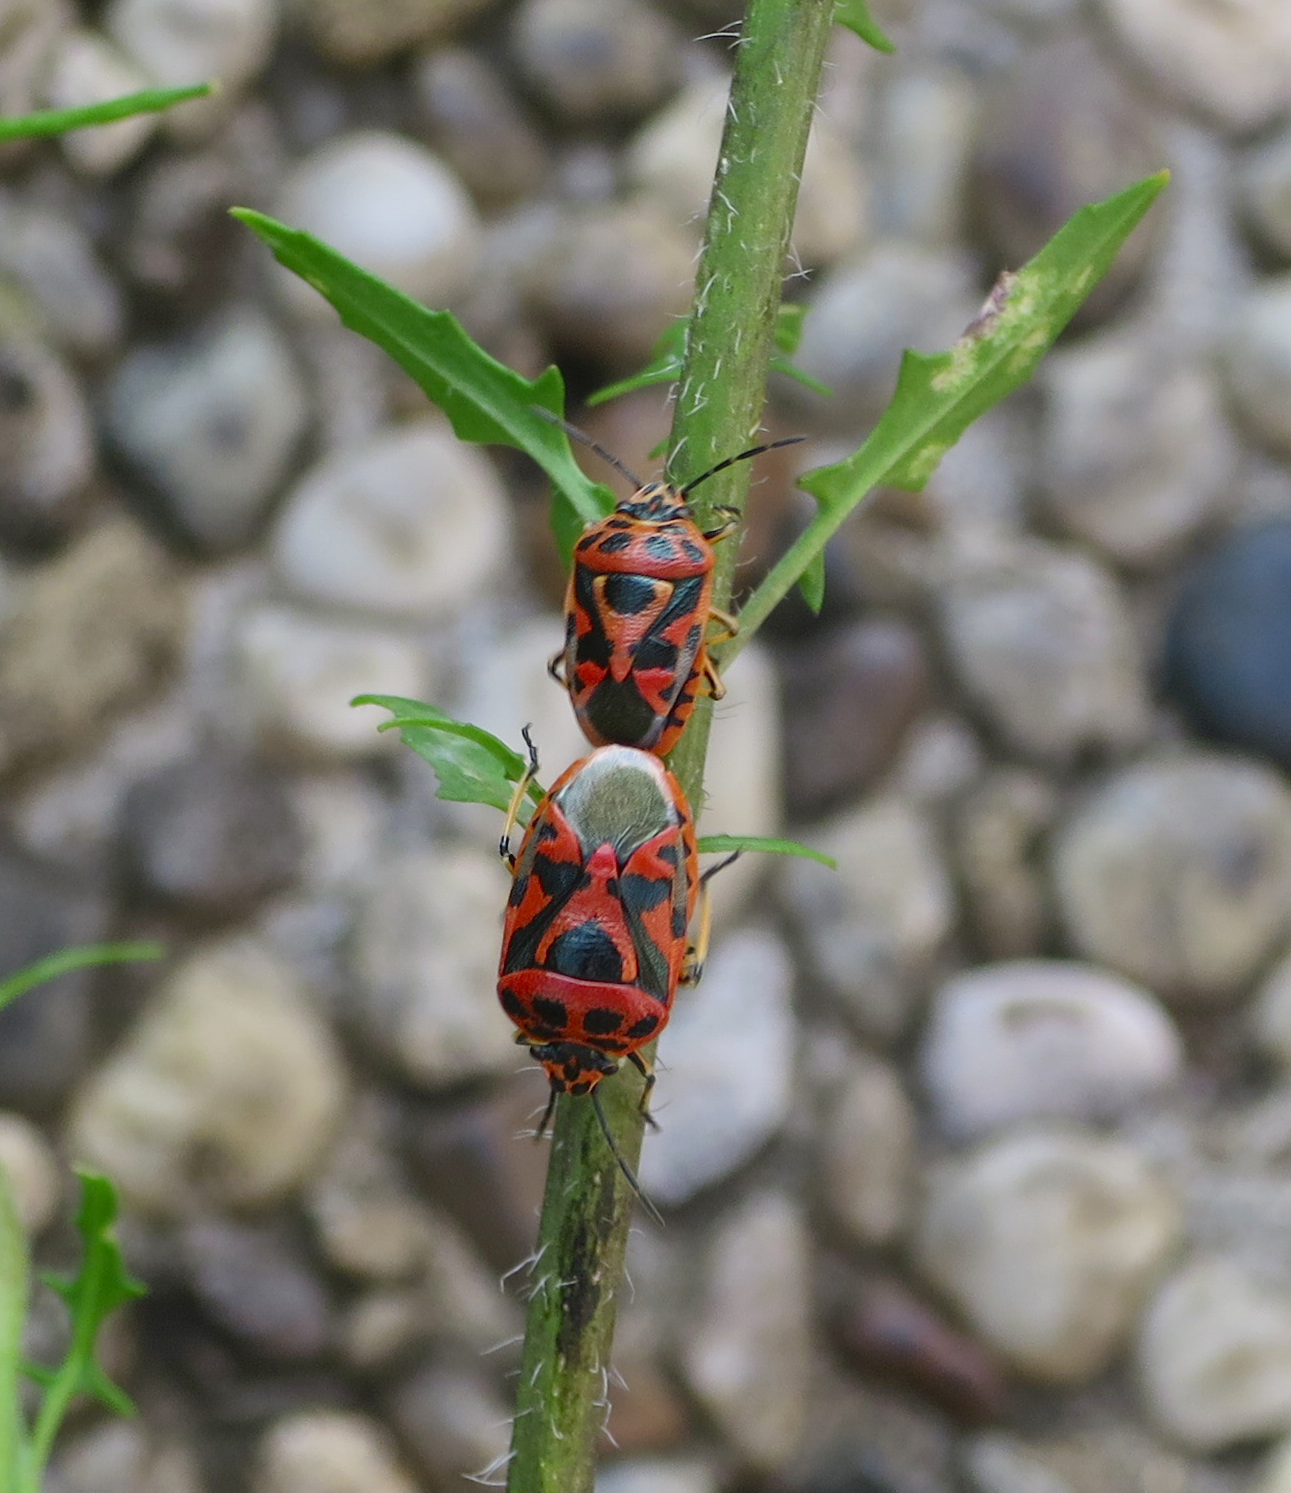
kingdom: Animalia
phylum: Arthropoda
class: Insecta
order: Hemiptera
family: Pentatomidae
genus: Eurydema
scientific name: Eurydema ornata
